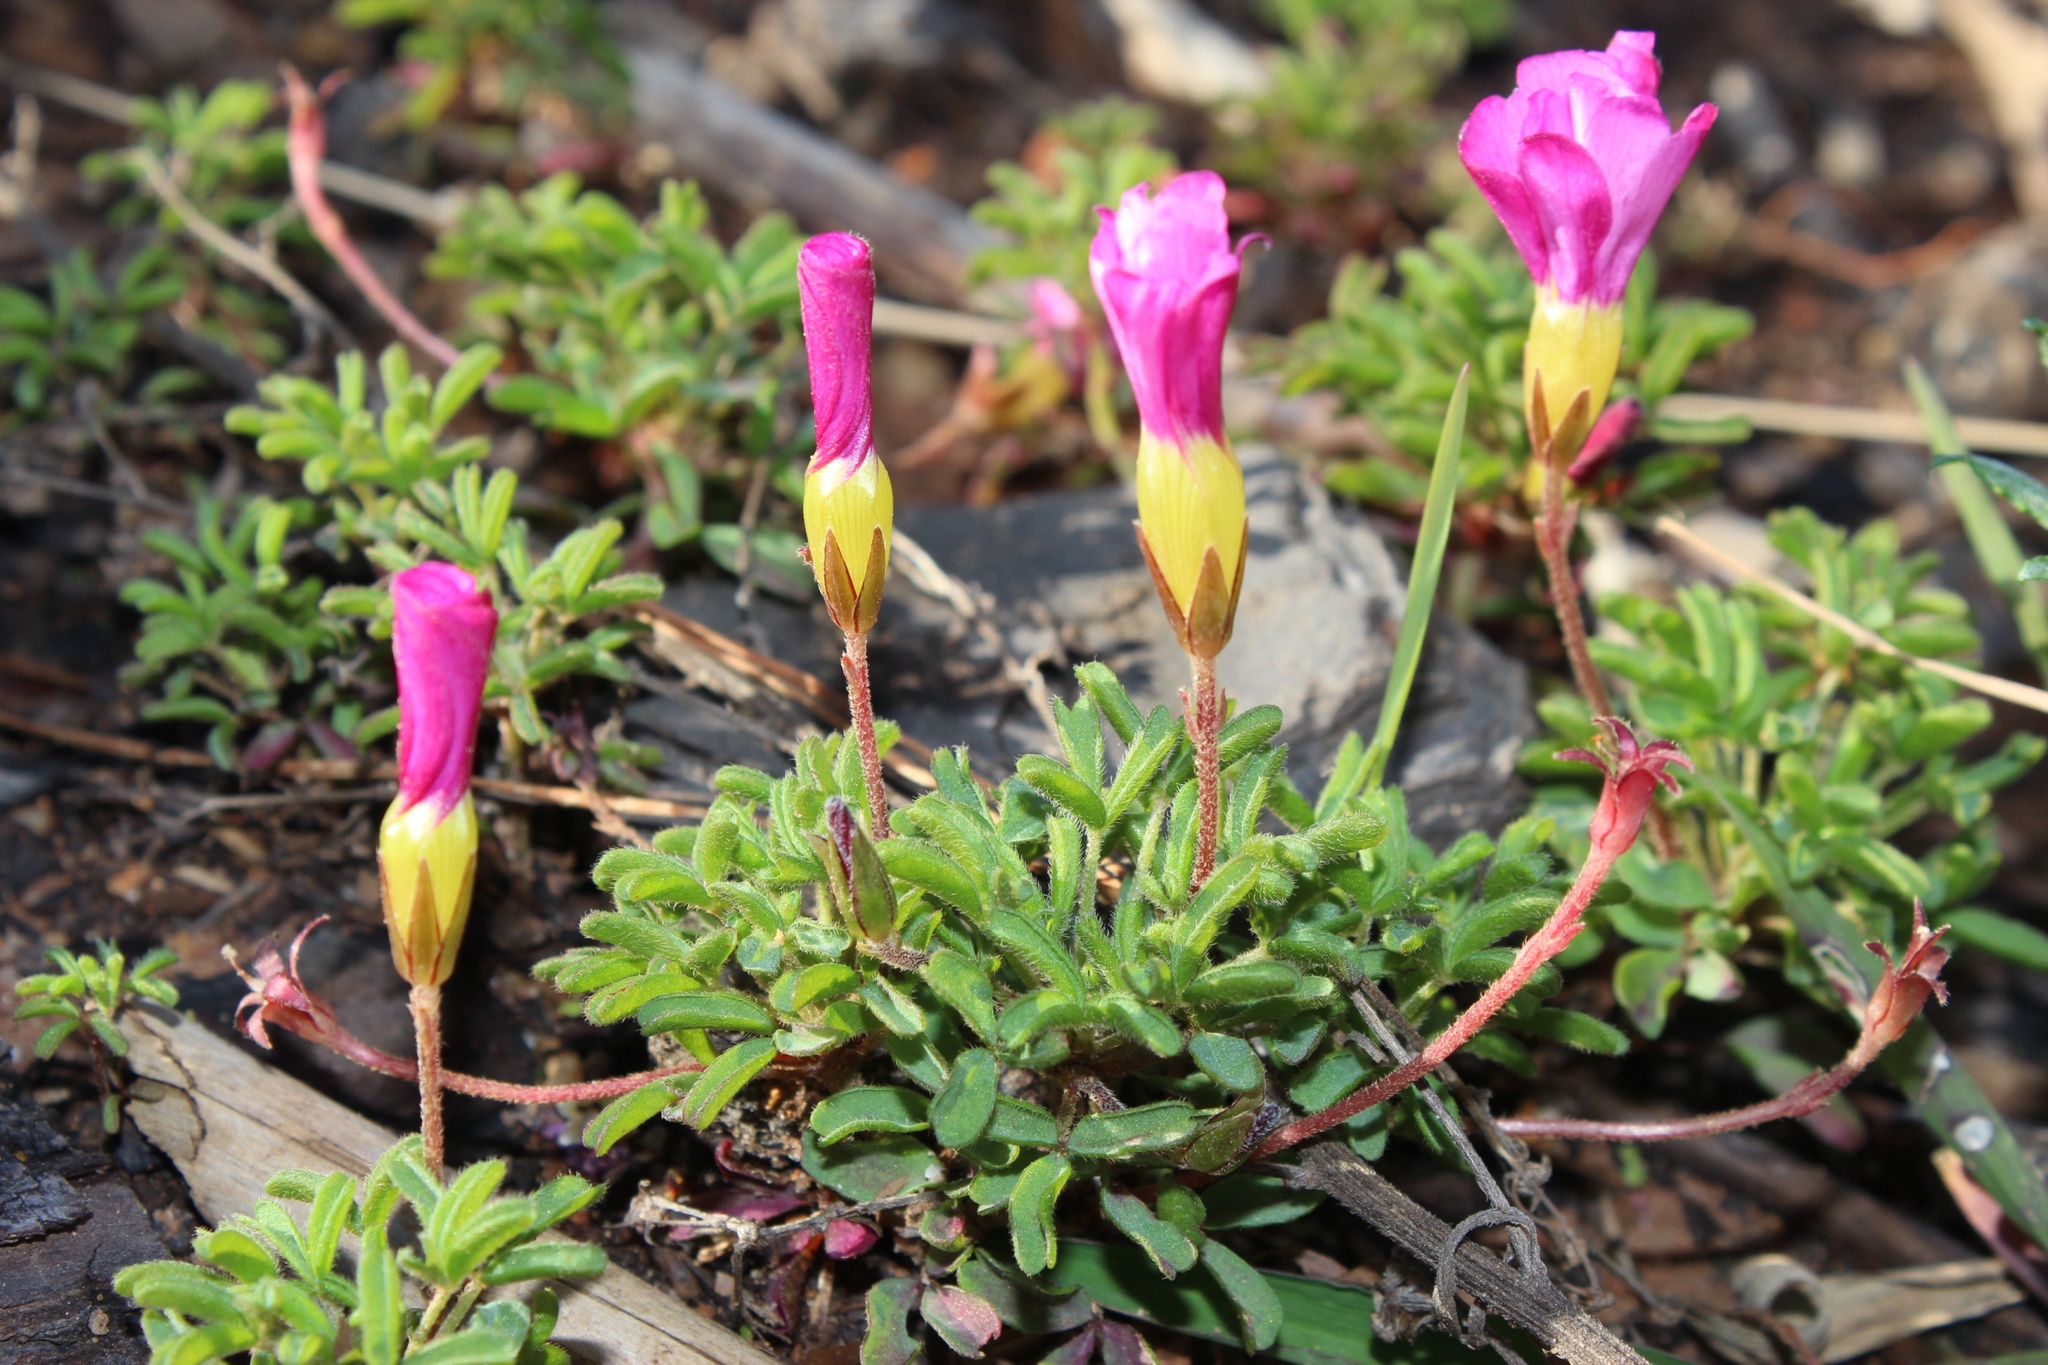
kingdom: Plantae
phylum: Tracheophyta
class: Magnoliopsida
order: Oxalidales
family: Oxalidaceae
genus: Oxalis
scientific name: Oxalis glabra
